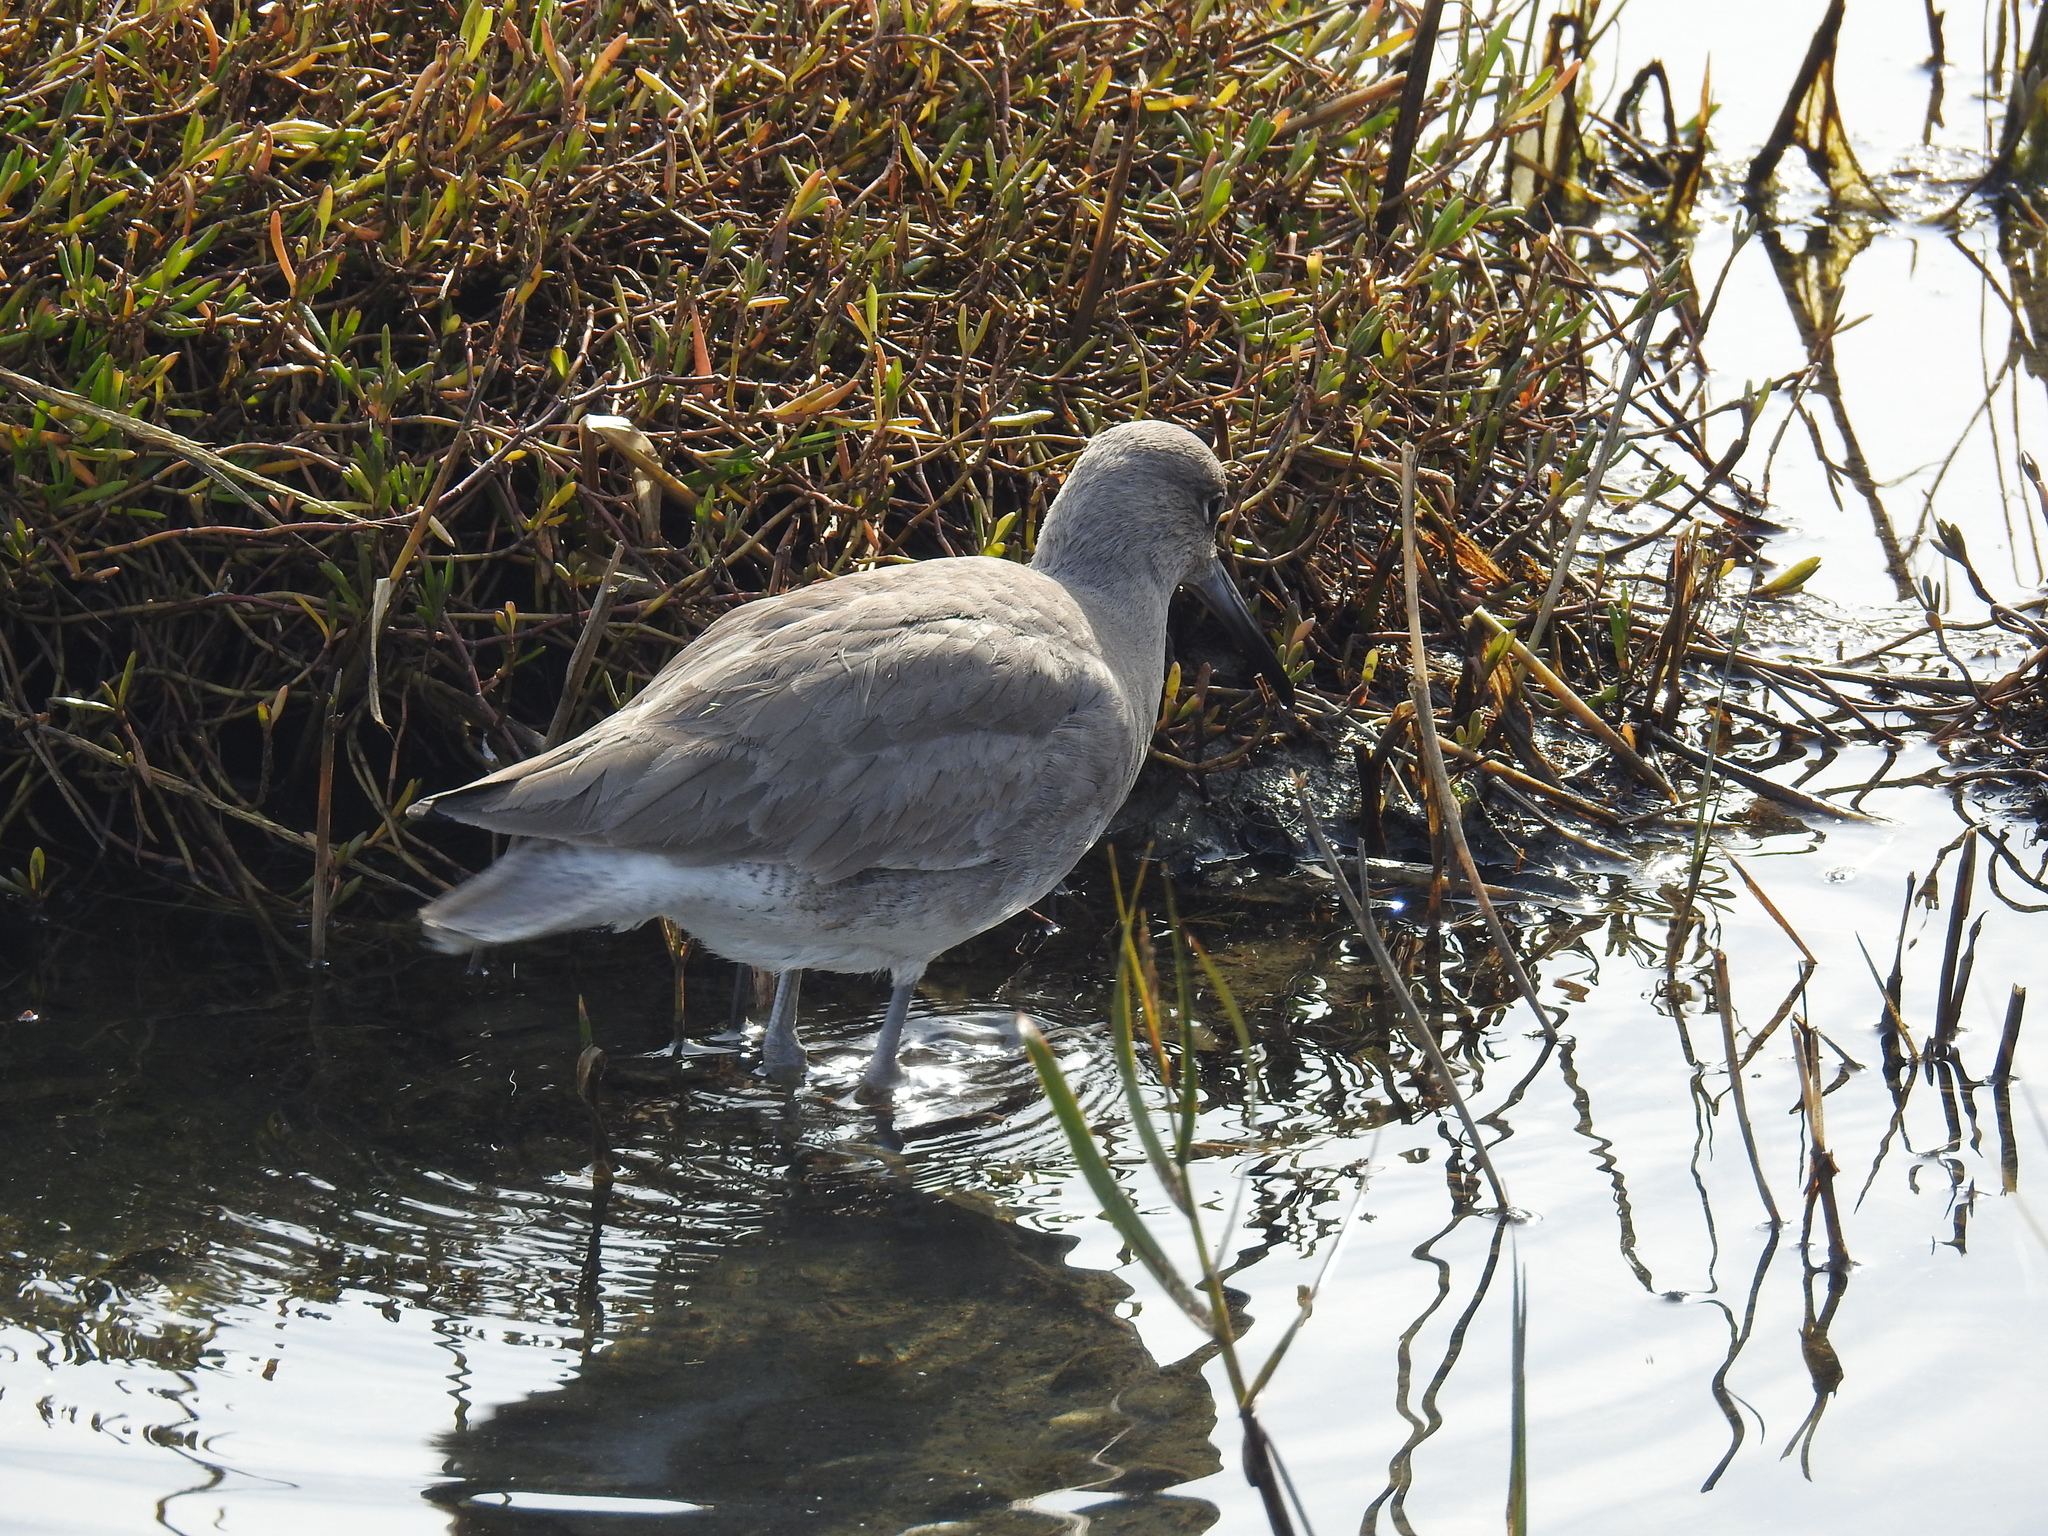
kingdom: Animalia
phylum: Chordata
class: Aves
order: Charadriiformes
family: Scolopacidae
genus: Tringa
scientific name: Tringa semipalmata
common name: Willet
